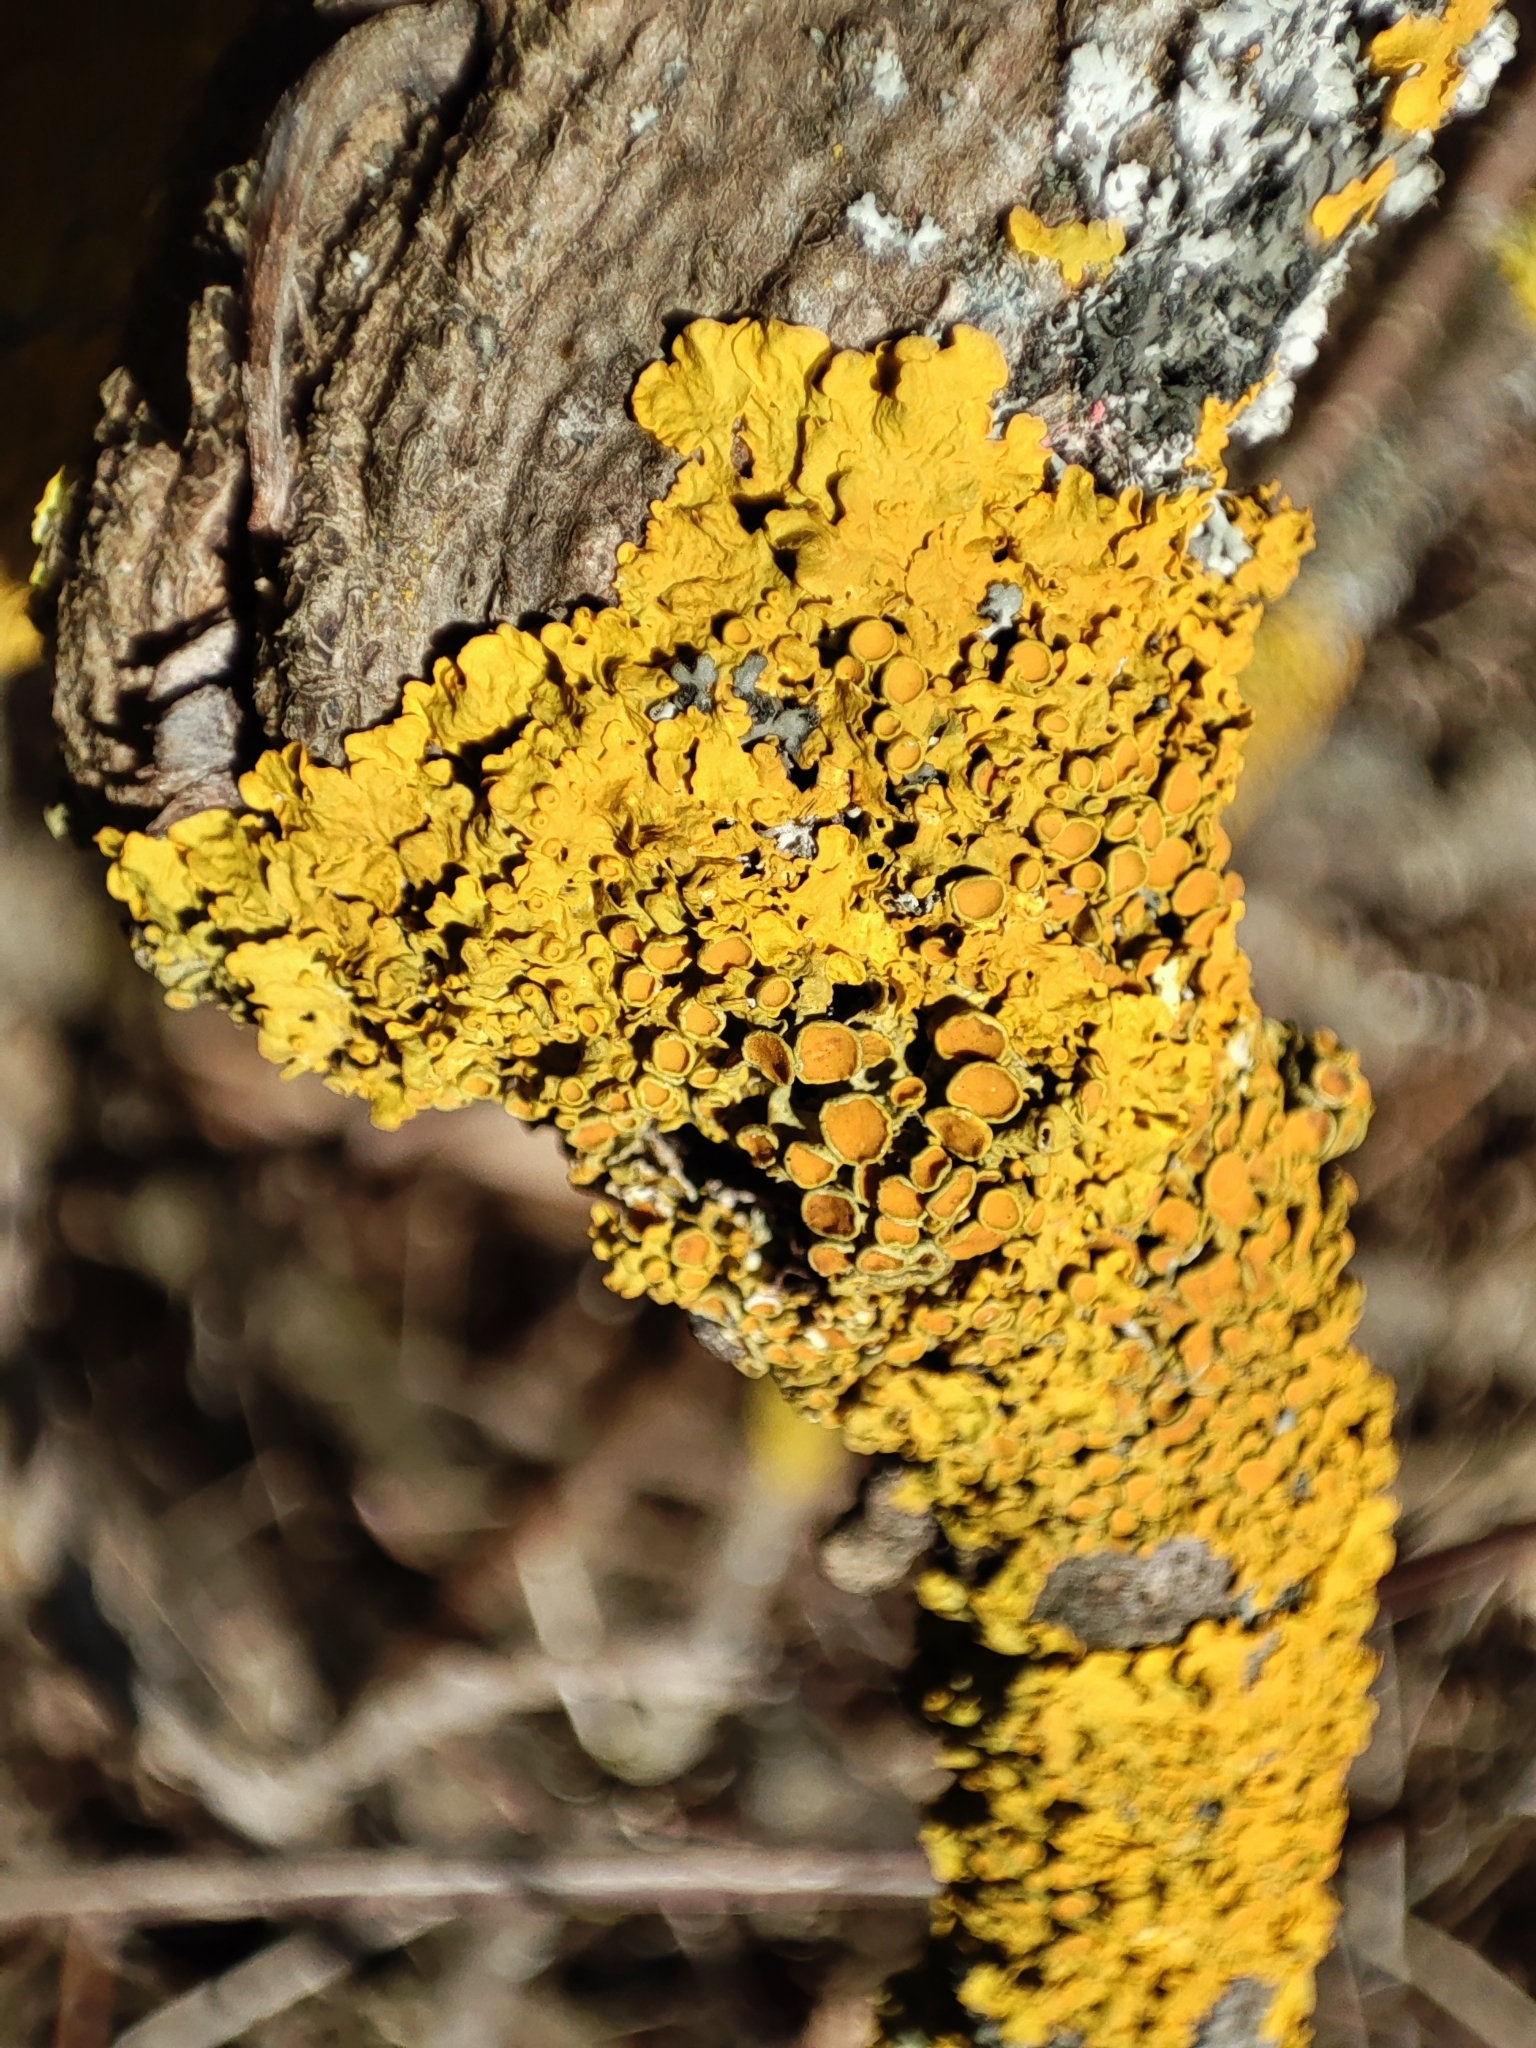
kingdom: Fungi
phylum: Ascomycota
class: Lecanoromycetes
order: Teloschistales
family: Teloschistaceae
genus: Xanthoria
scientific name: Xanthoria parietina
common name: Common orange lichen
